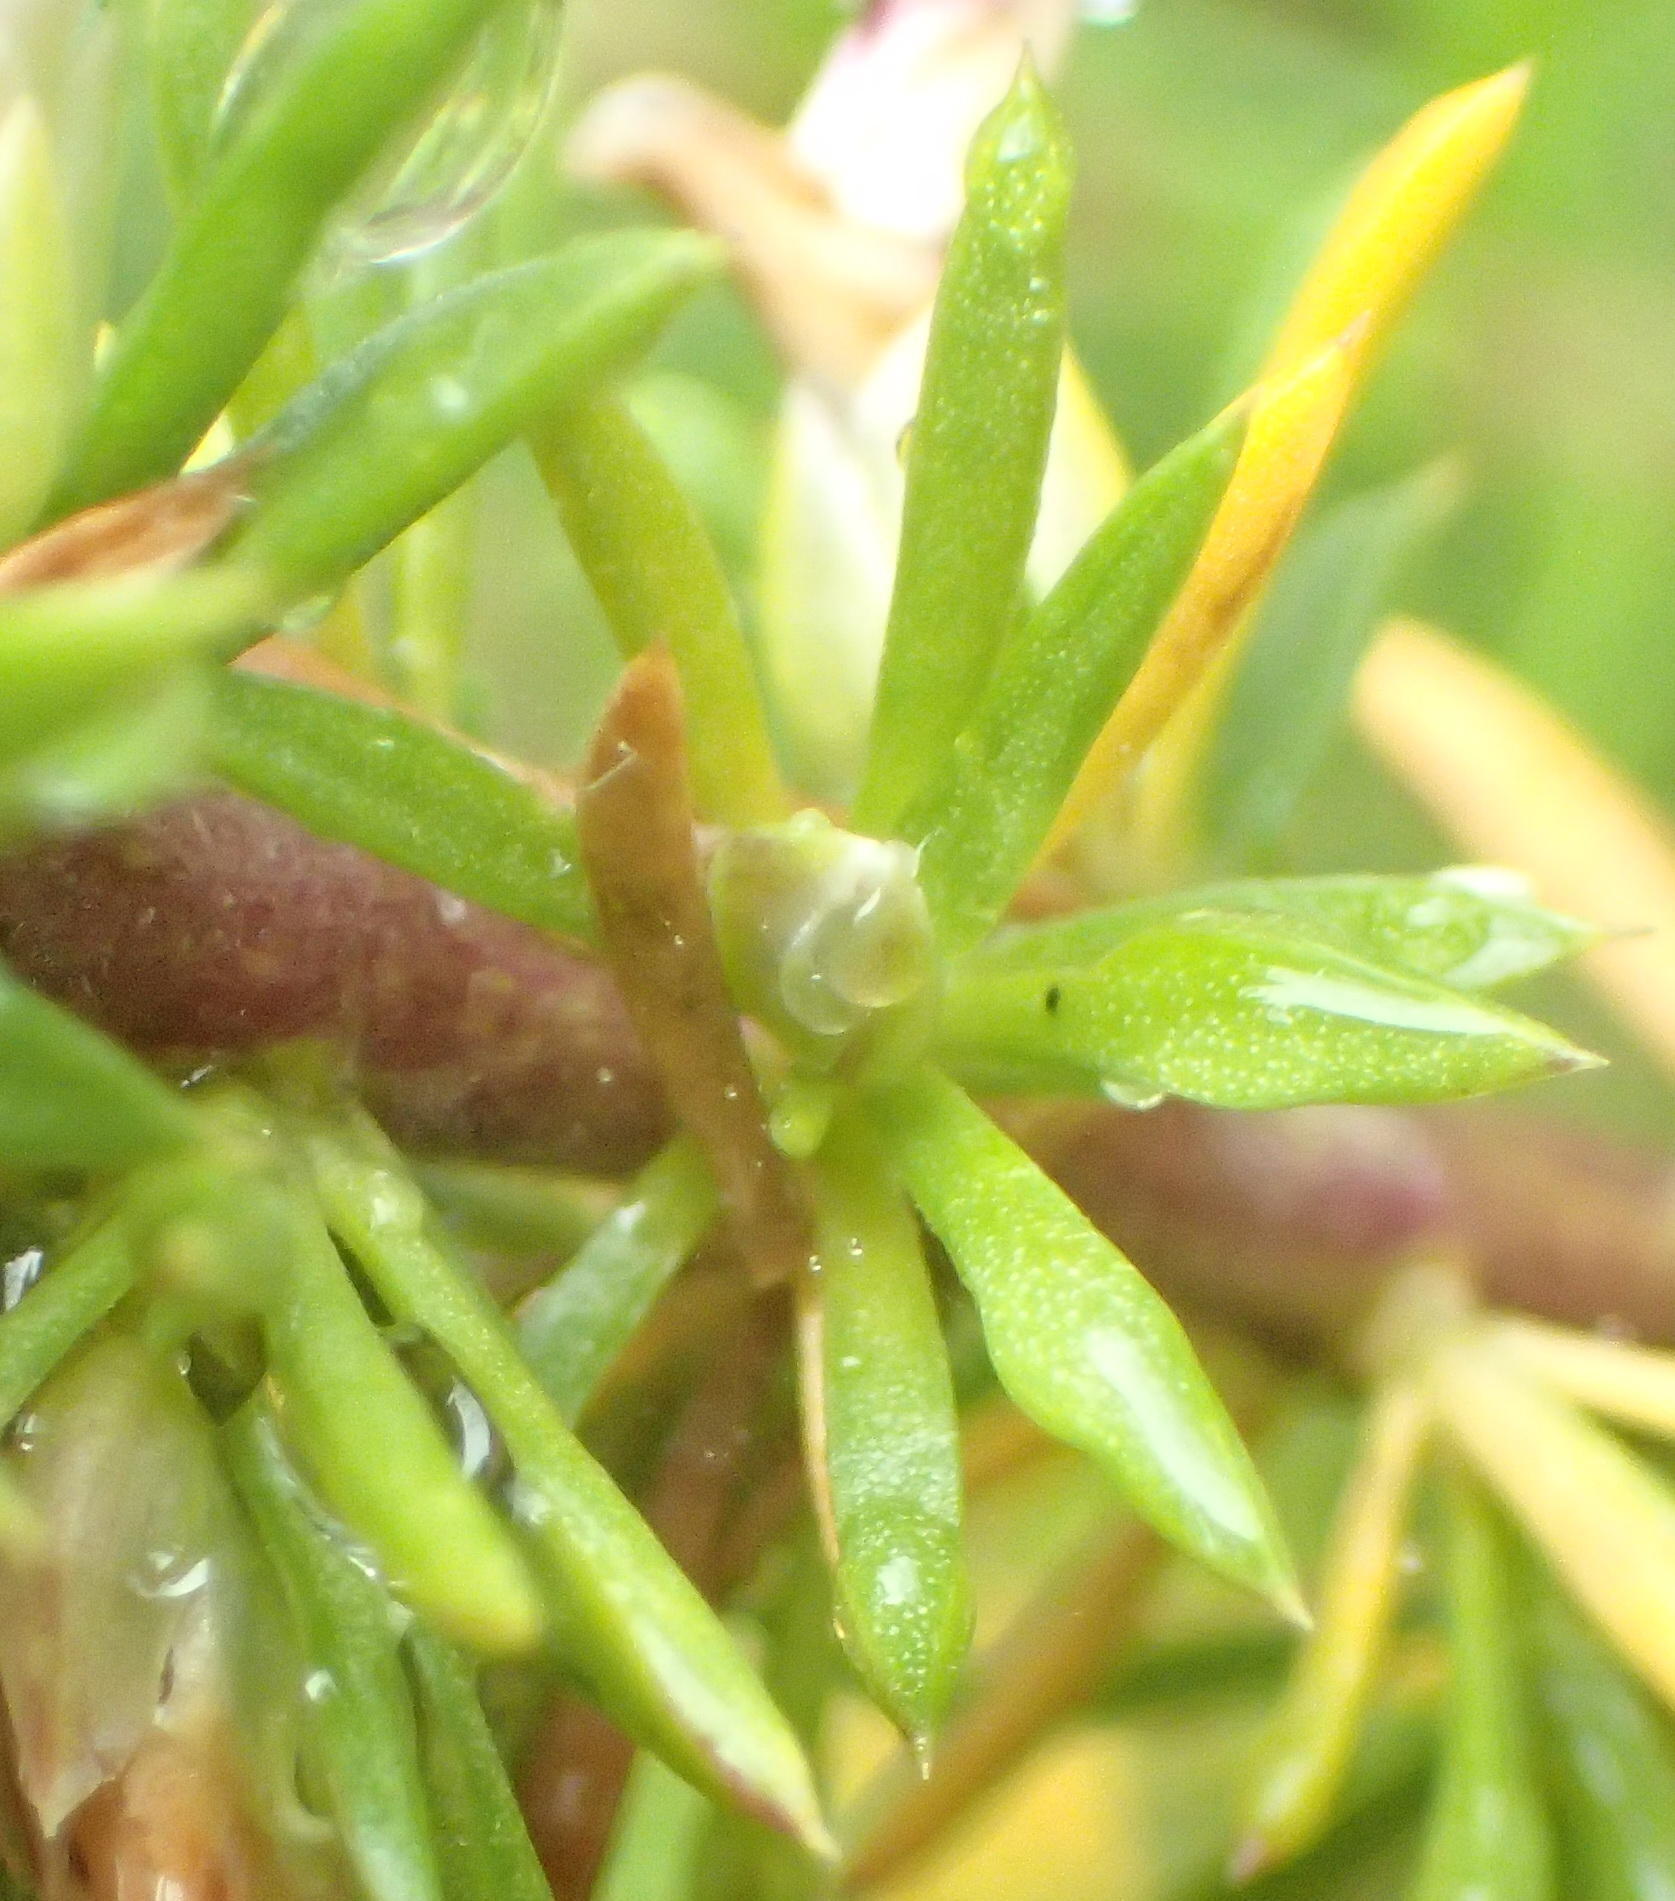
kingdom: Plantae
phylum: Tracheophyta
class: Magnoliopsida
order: Fabales
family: Polygalaceae
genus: Muraltia
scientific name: Muraltia ericifolia
